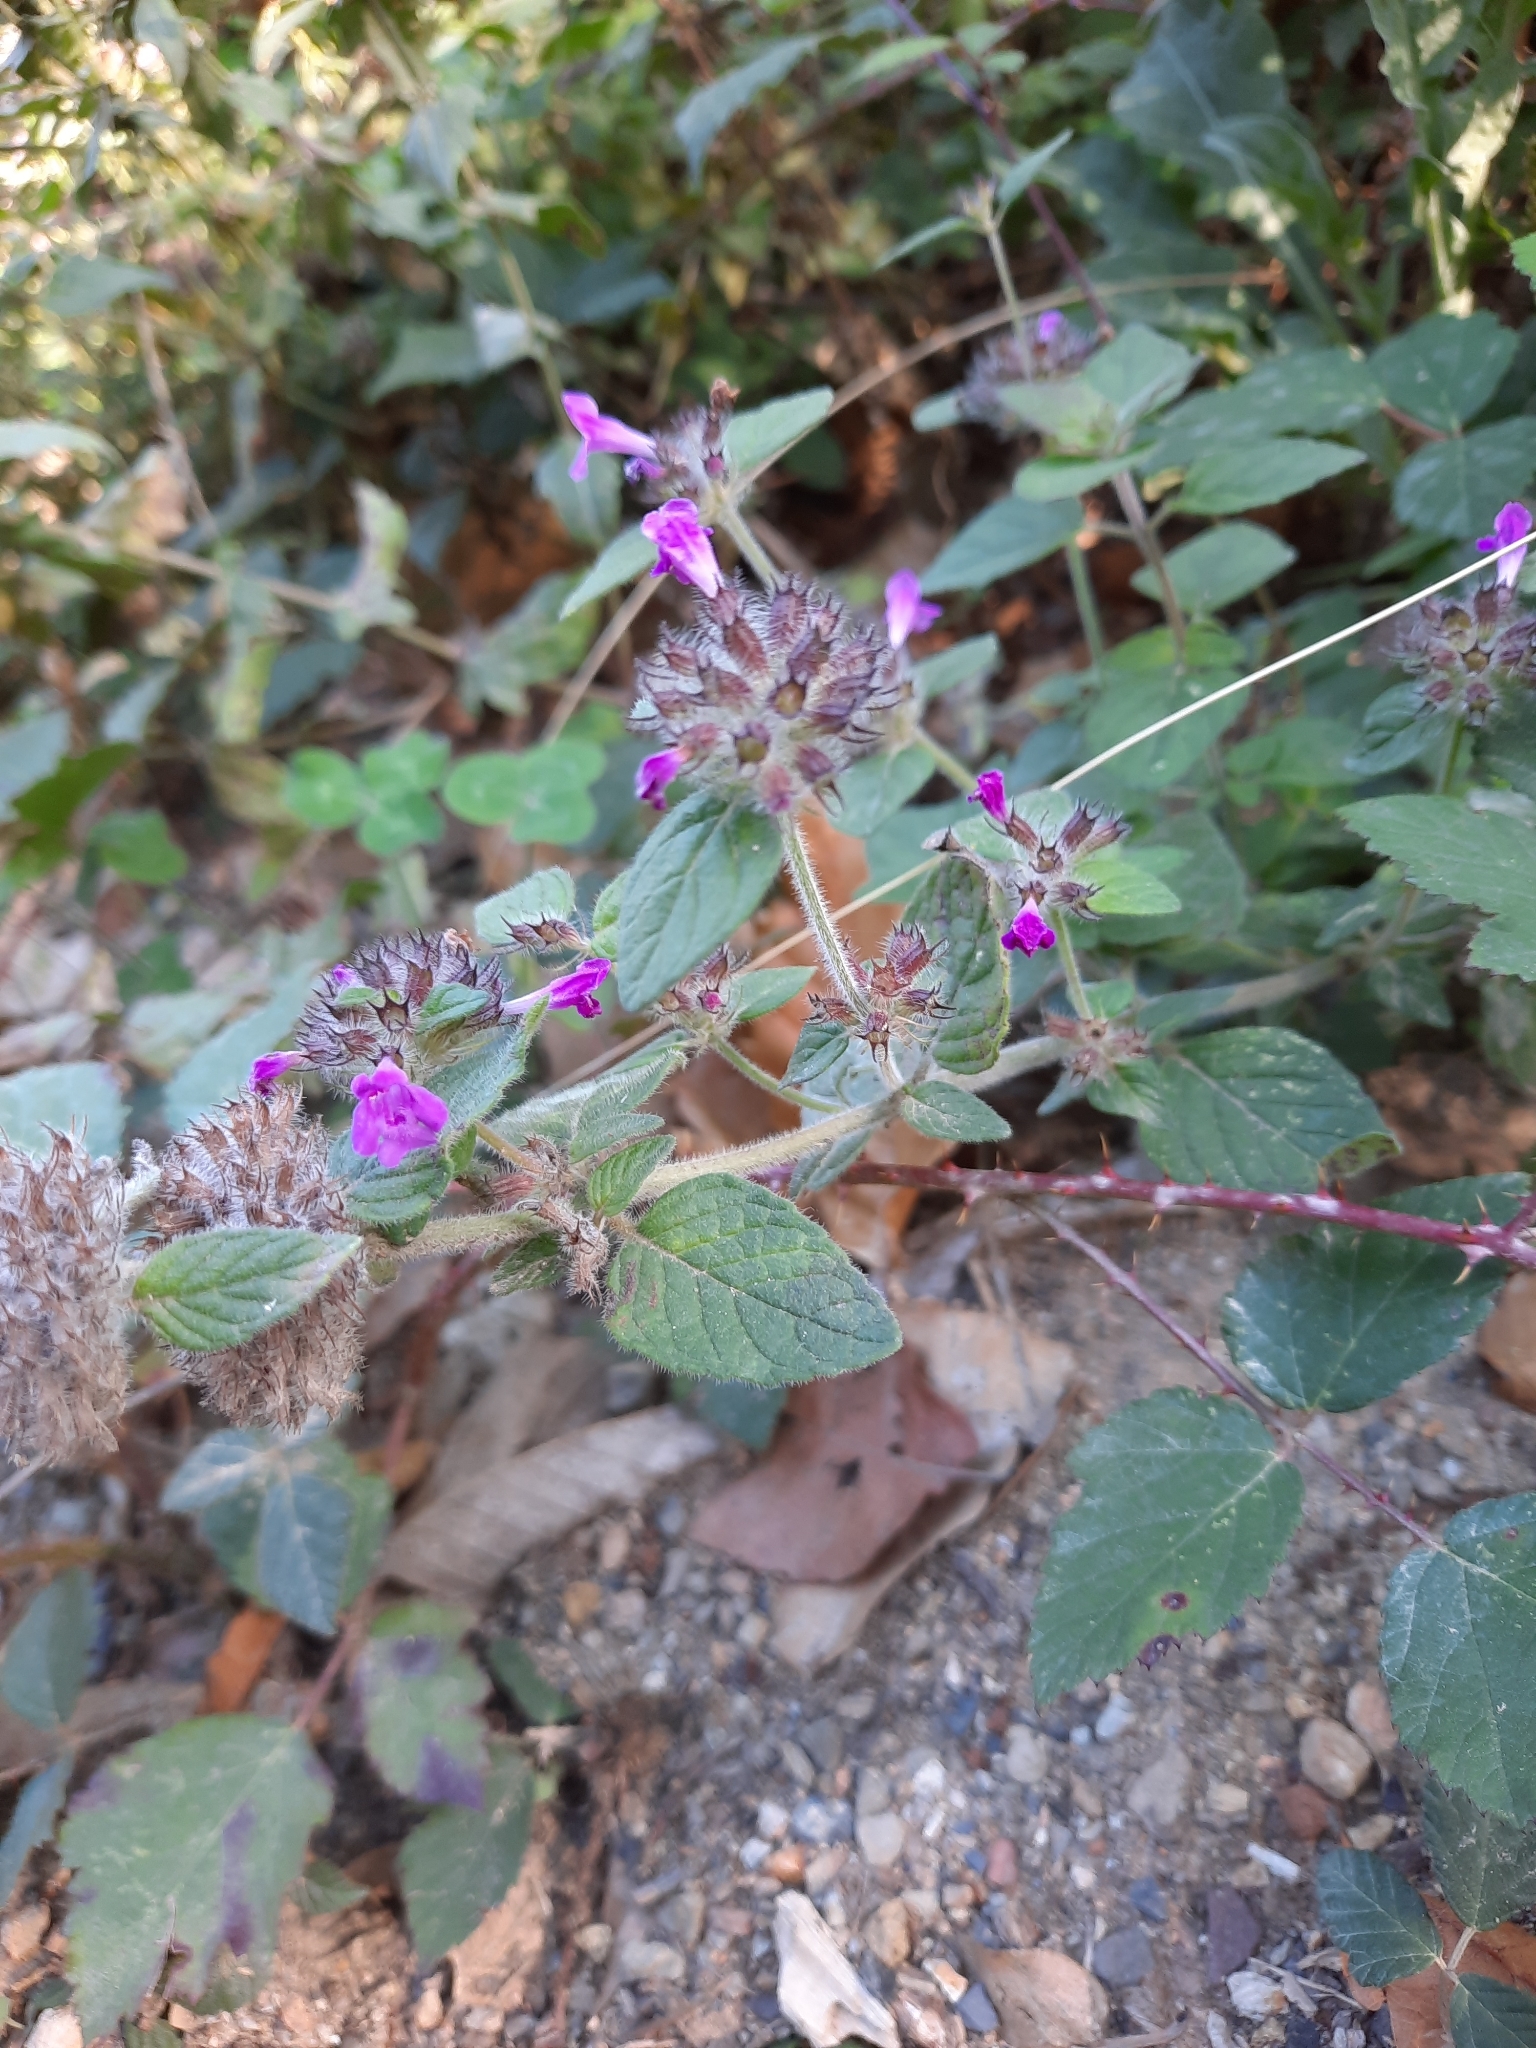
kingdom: Plantae
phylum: Tracheophyta
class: Magnoliopsida
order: Lamiales
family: Lamiaceae
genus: Clinopodium
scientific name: Clinopodium vulgare
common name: Wild basil
